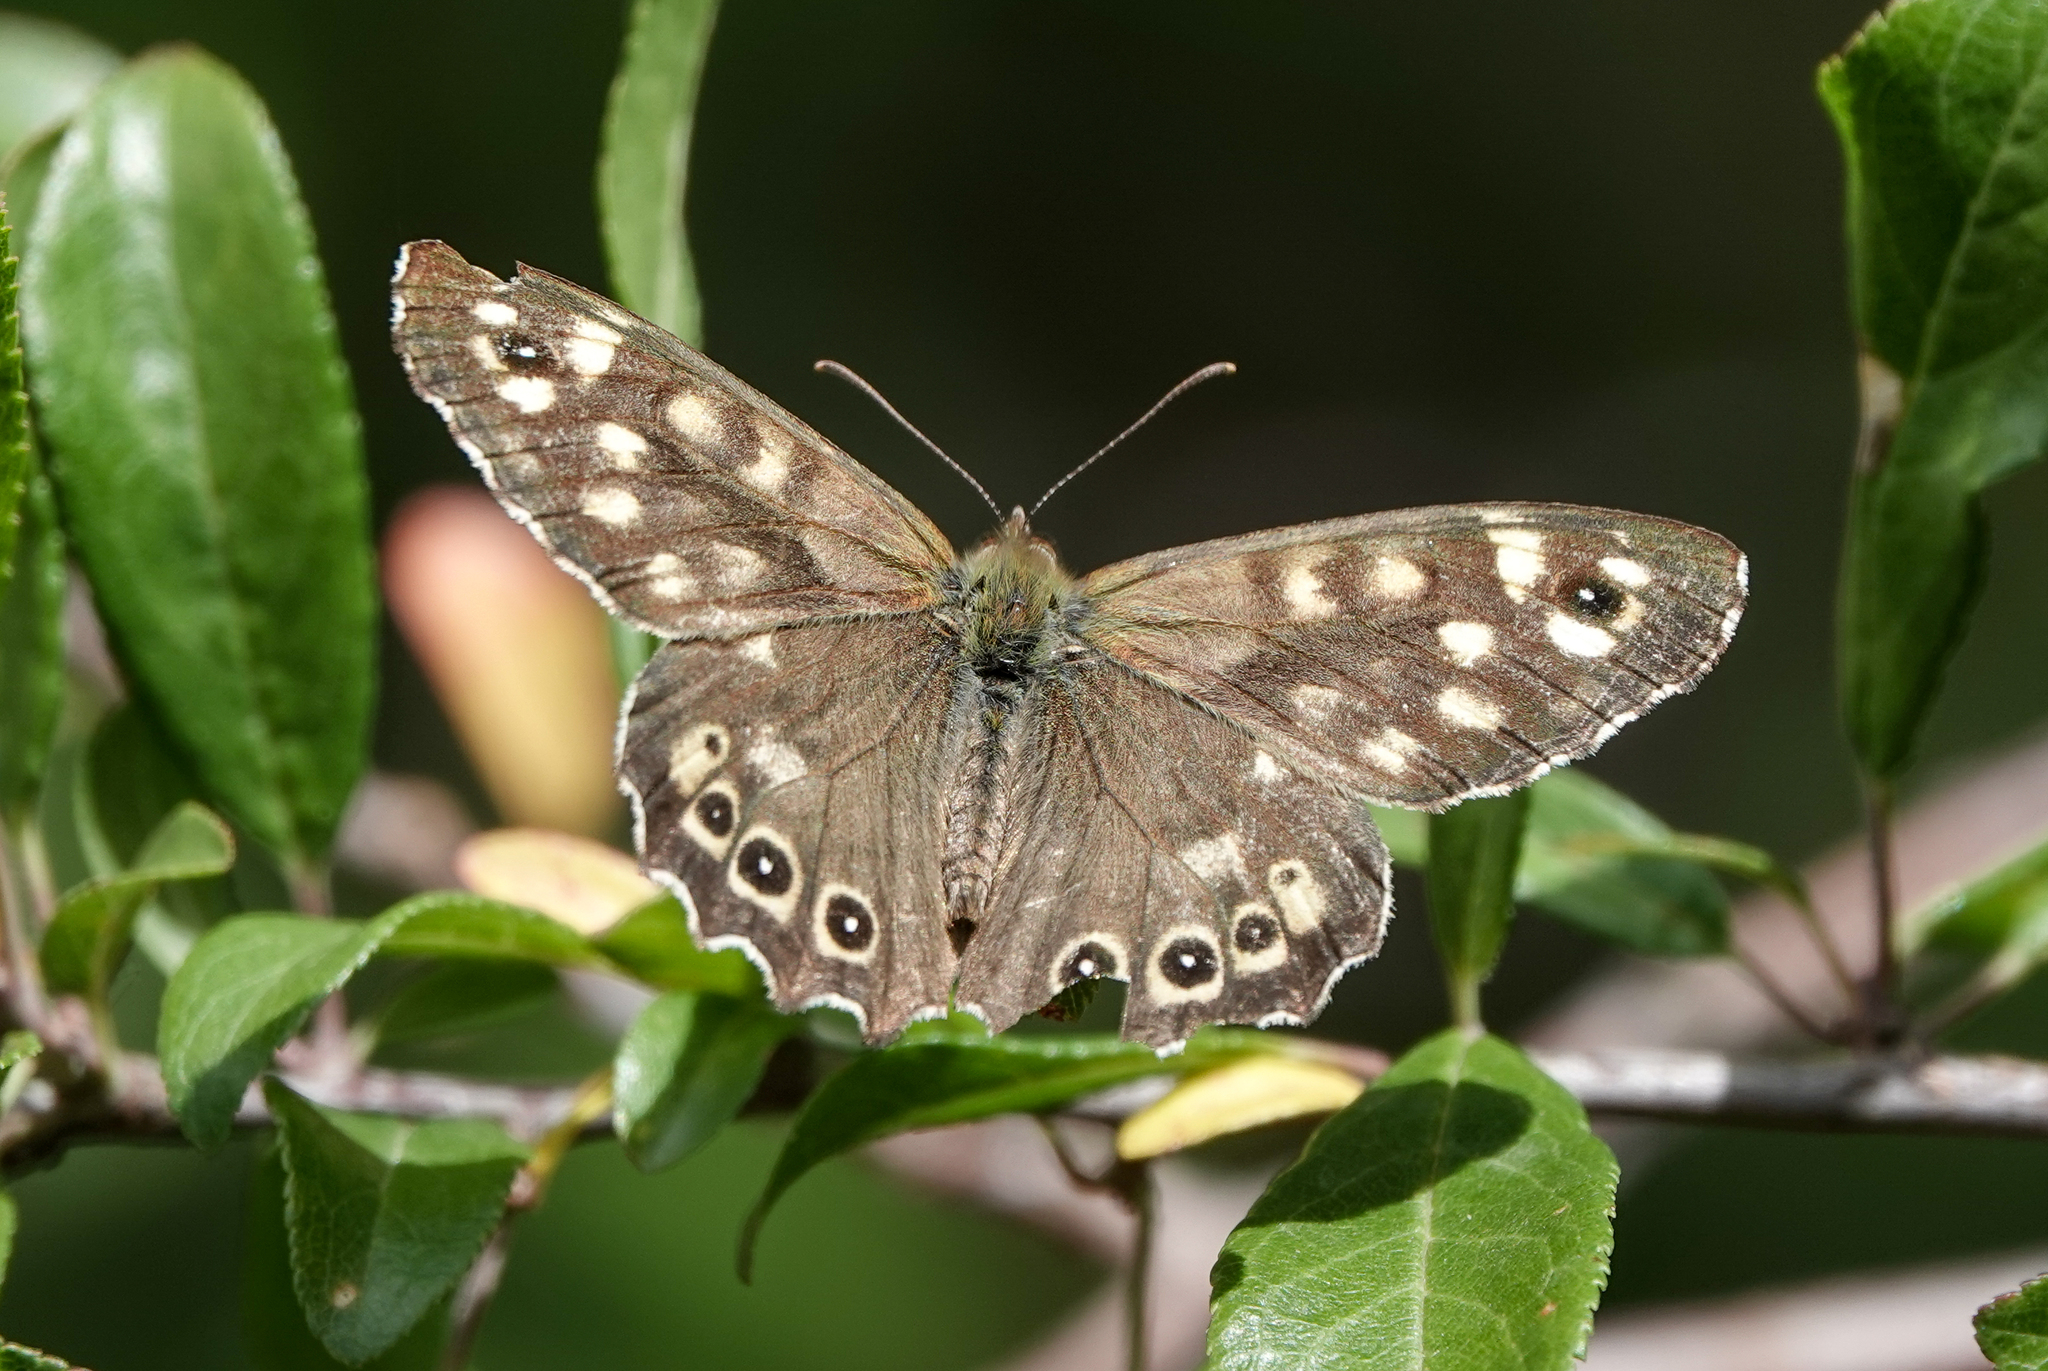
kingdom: Animalia
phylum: Arthropoda
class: Insecta
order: Lepidoptera
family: Nymphalidae
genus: Pararge
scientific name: Pararge aegeria
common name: Speckled wood
